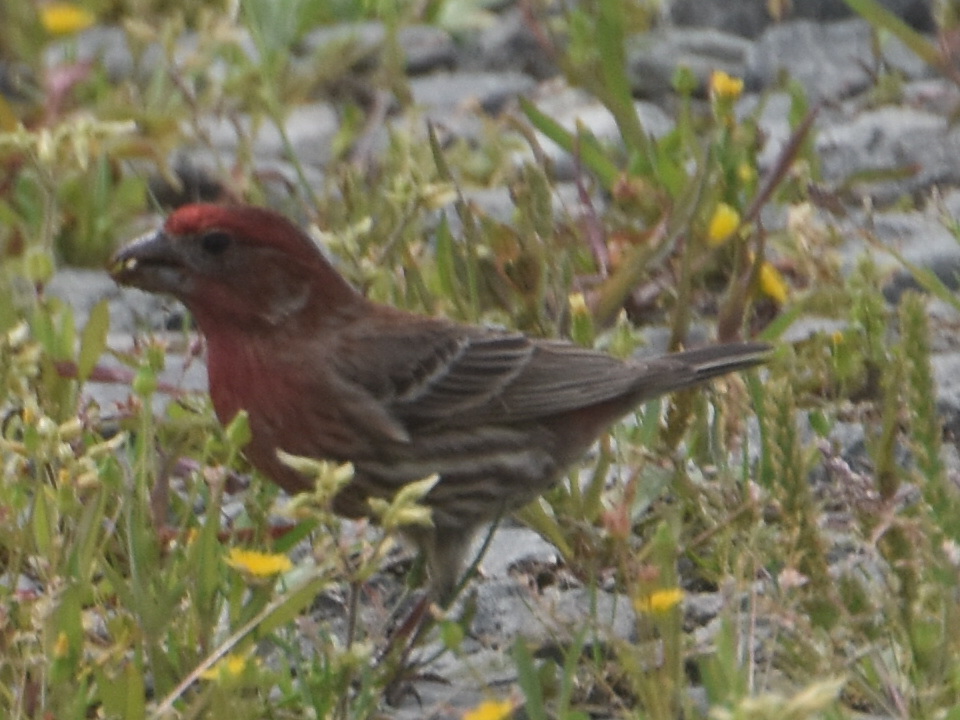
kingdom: Animalia
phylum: Chordata
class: Aves
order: Passeriformes
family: Fringillidae
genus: Haemorhous
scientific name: Haemorhous mexicanus
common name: House finch
